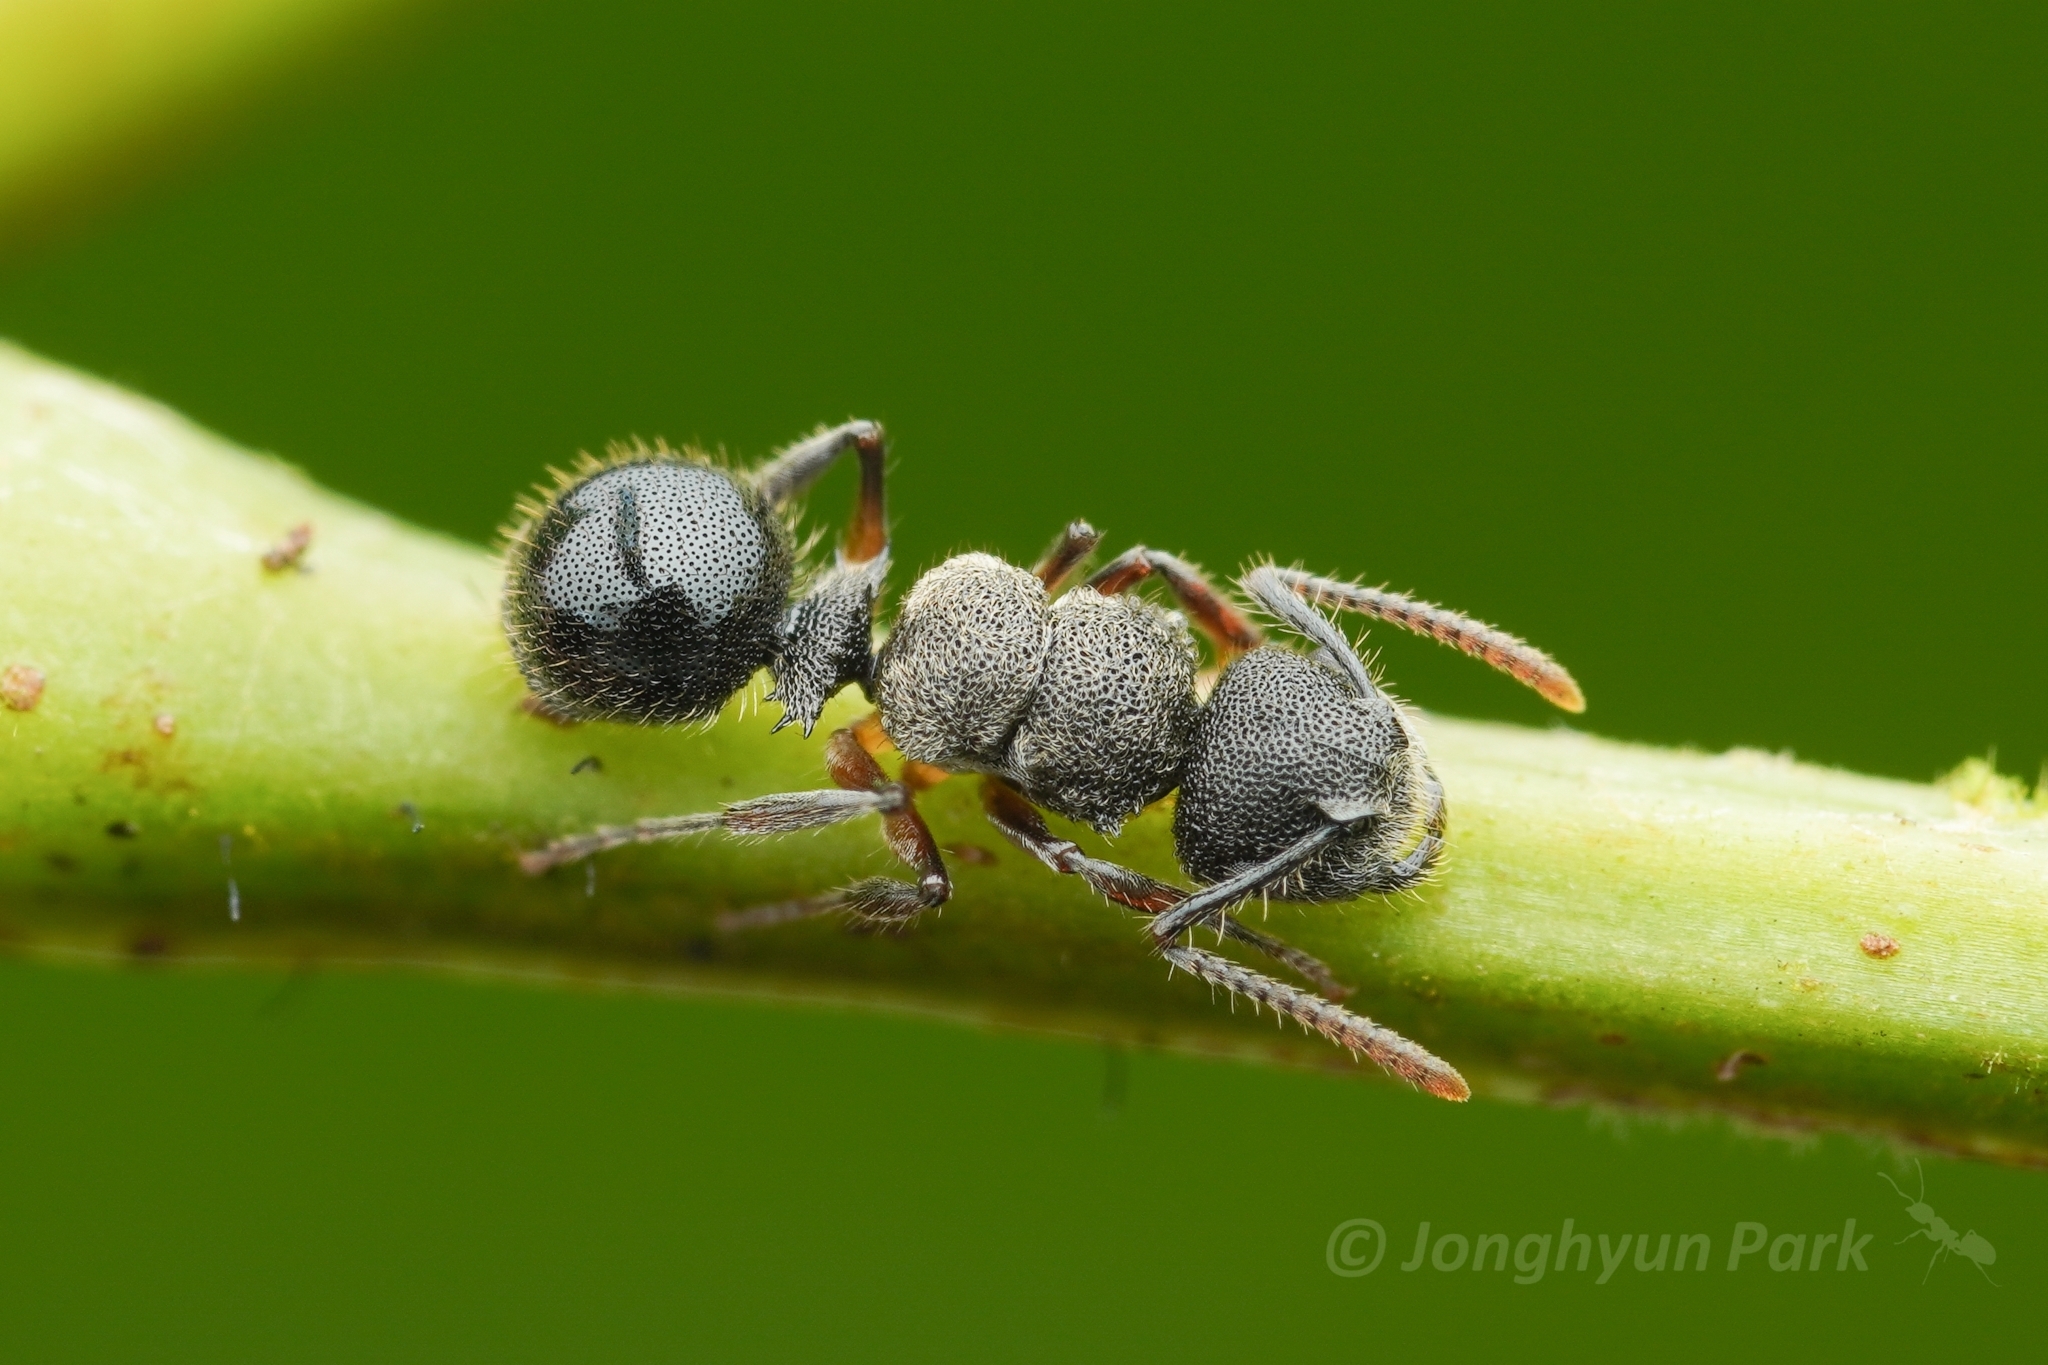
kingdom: Animalia
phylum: Arthropoda
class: Insecta
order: Hymenoptera
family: Formicidae
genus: Echinopla
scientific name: Echinopla madli
